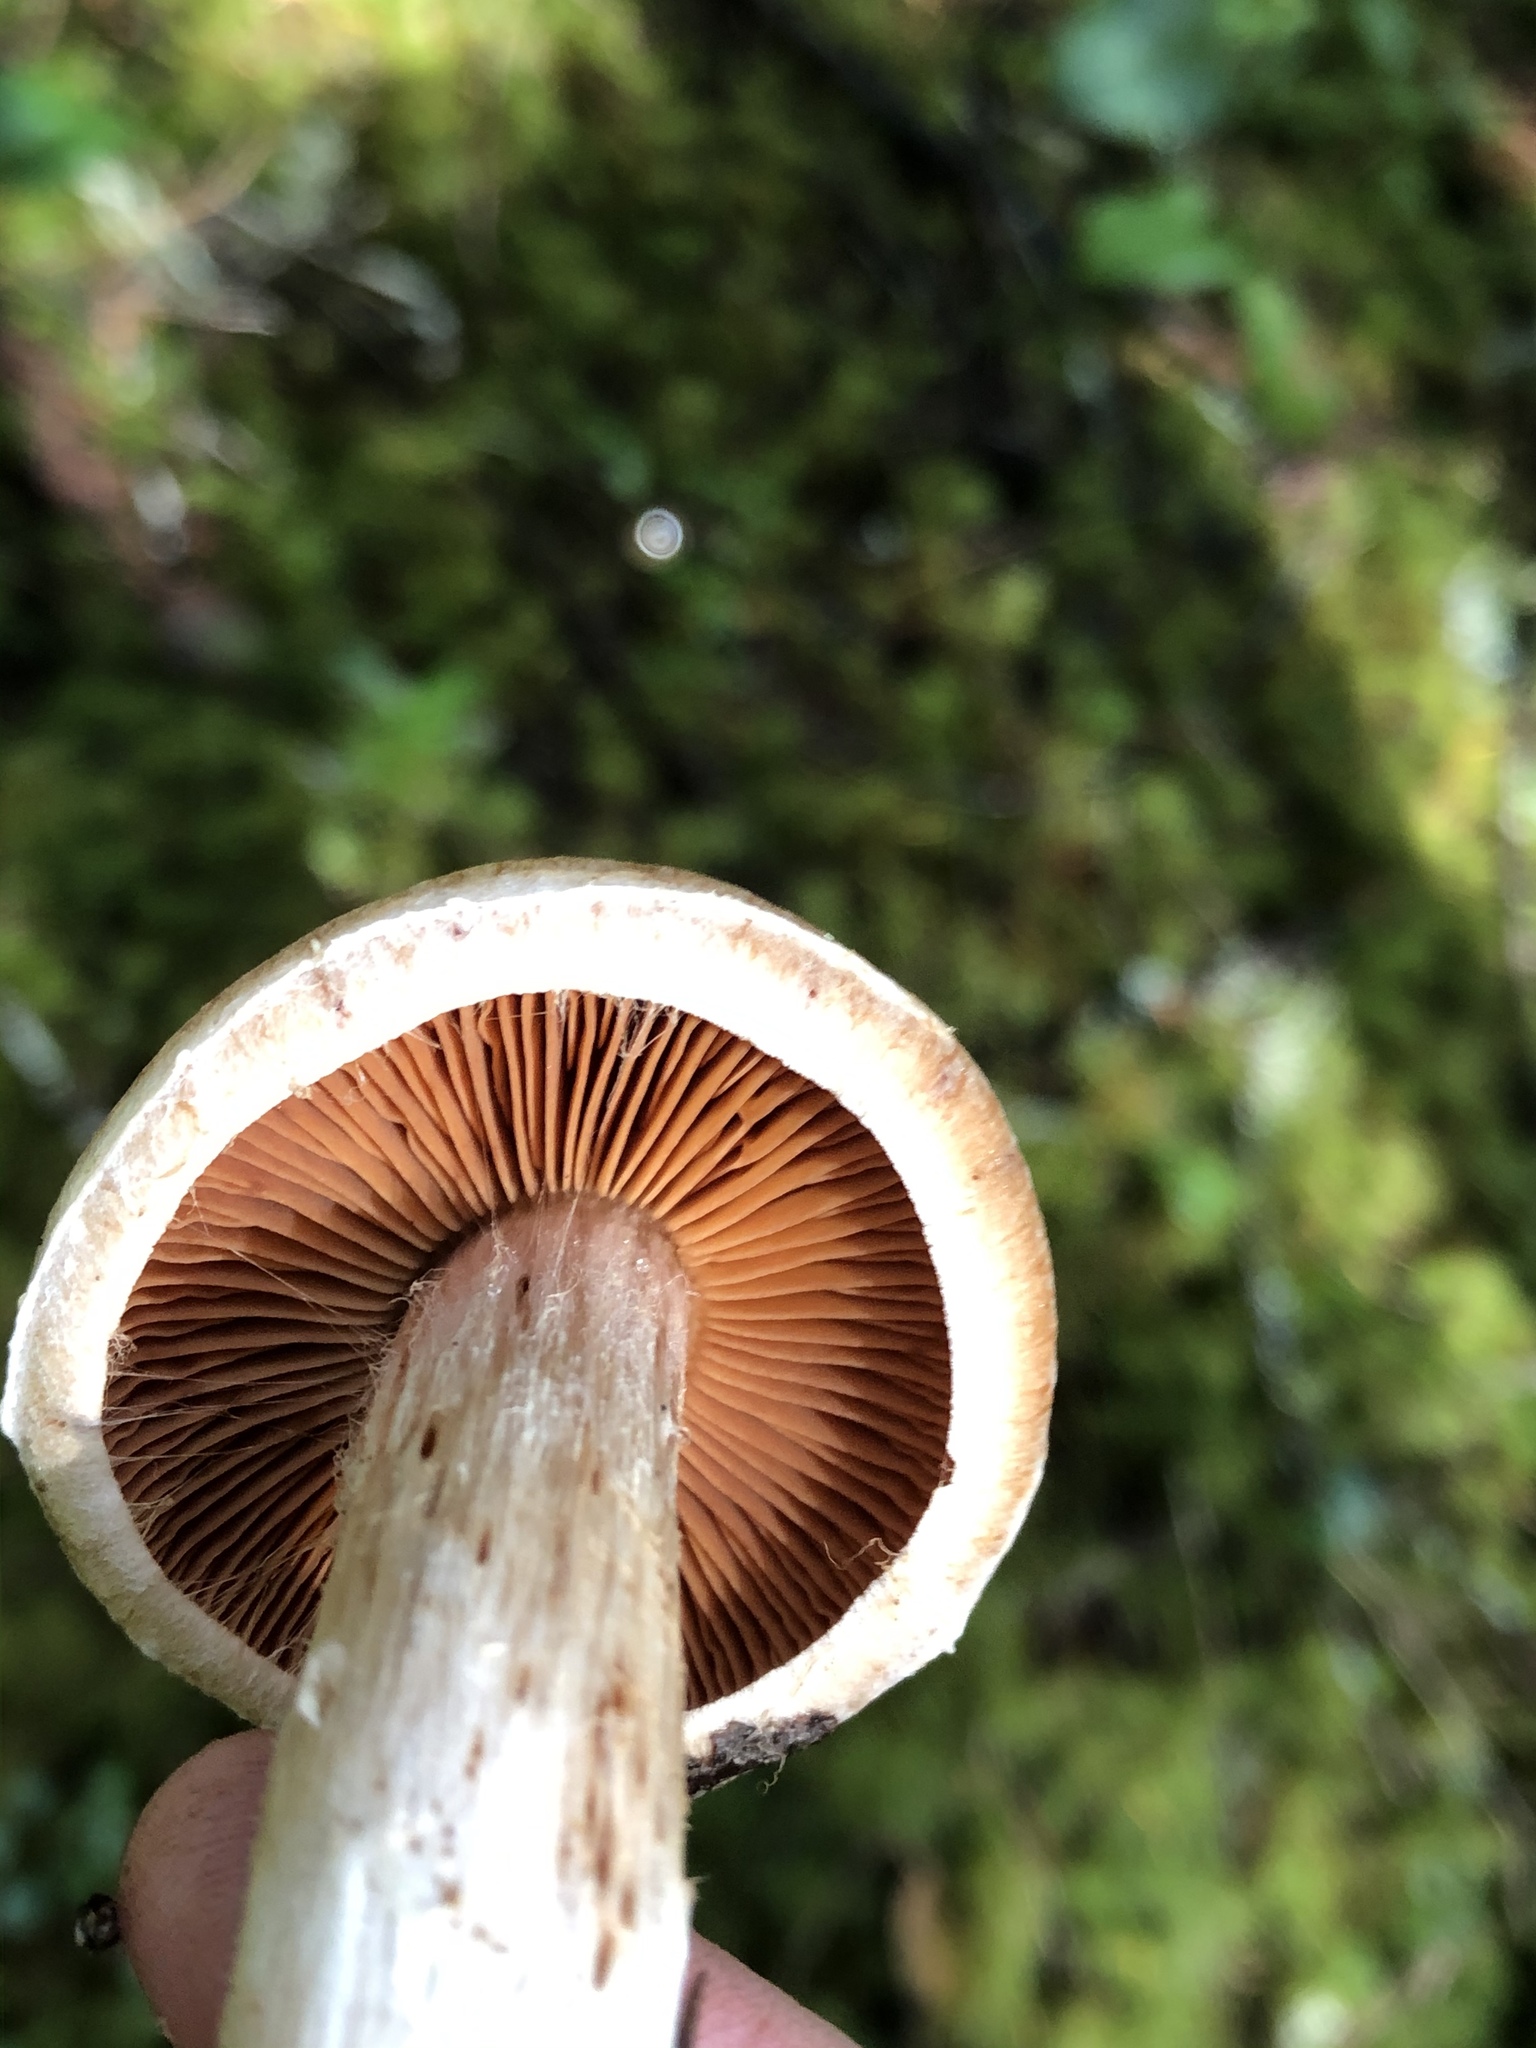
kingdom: Fungi
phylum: Basidiomycota
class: Agaricomycetes
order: Agaricales
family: Cortinariaceae
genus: Cortinarius
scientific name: Cortinarius solis-occasus
